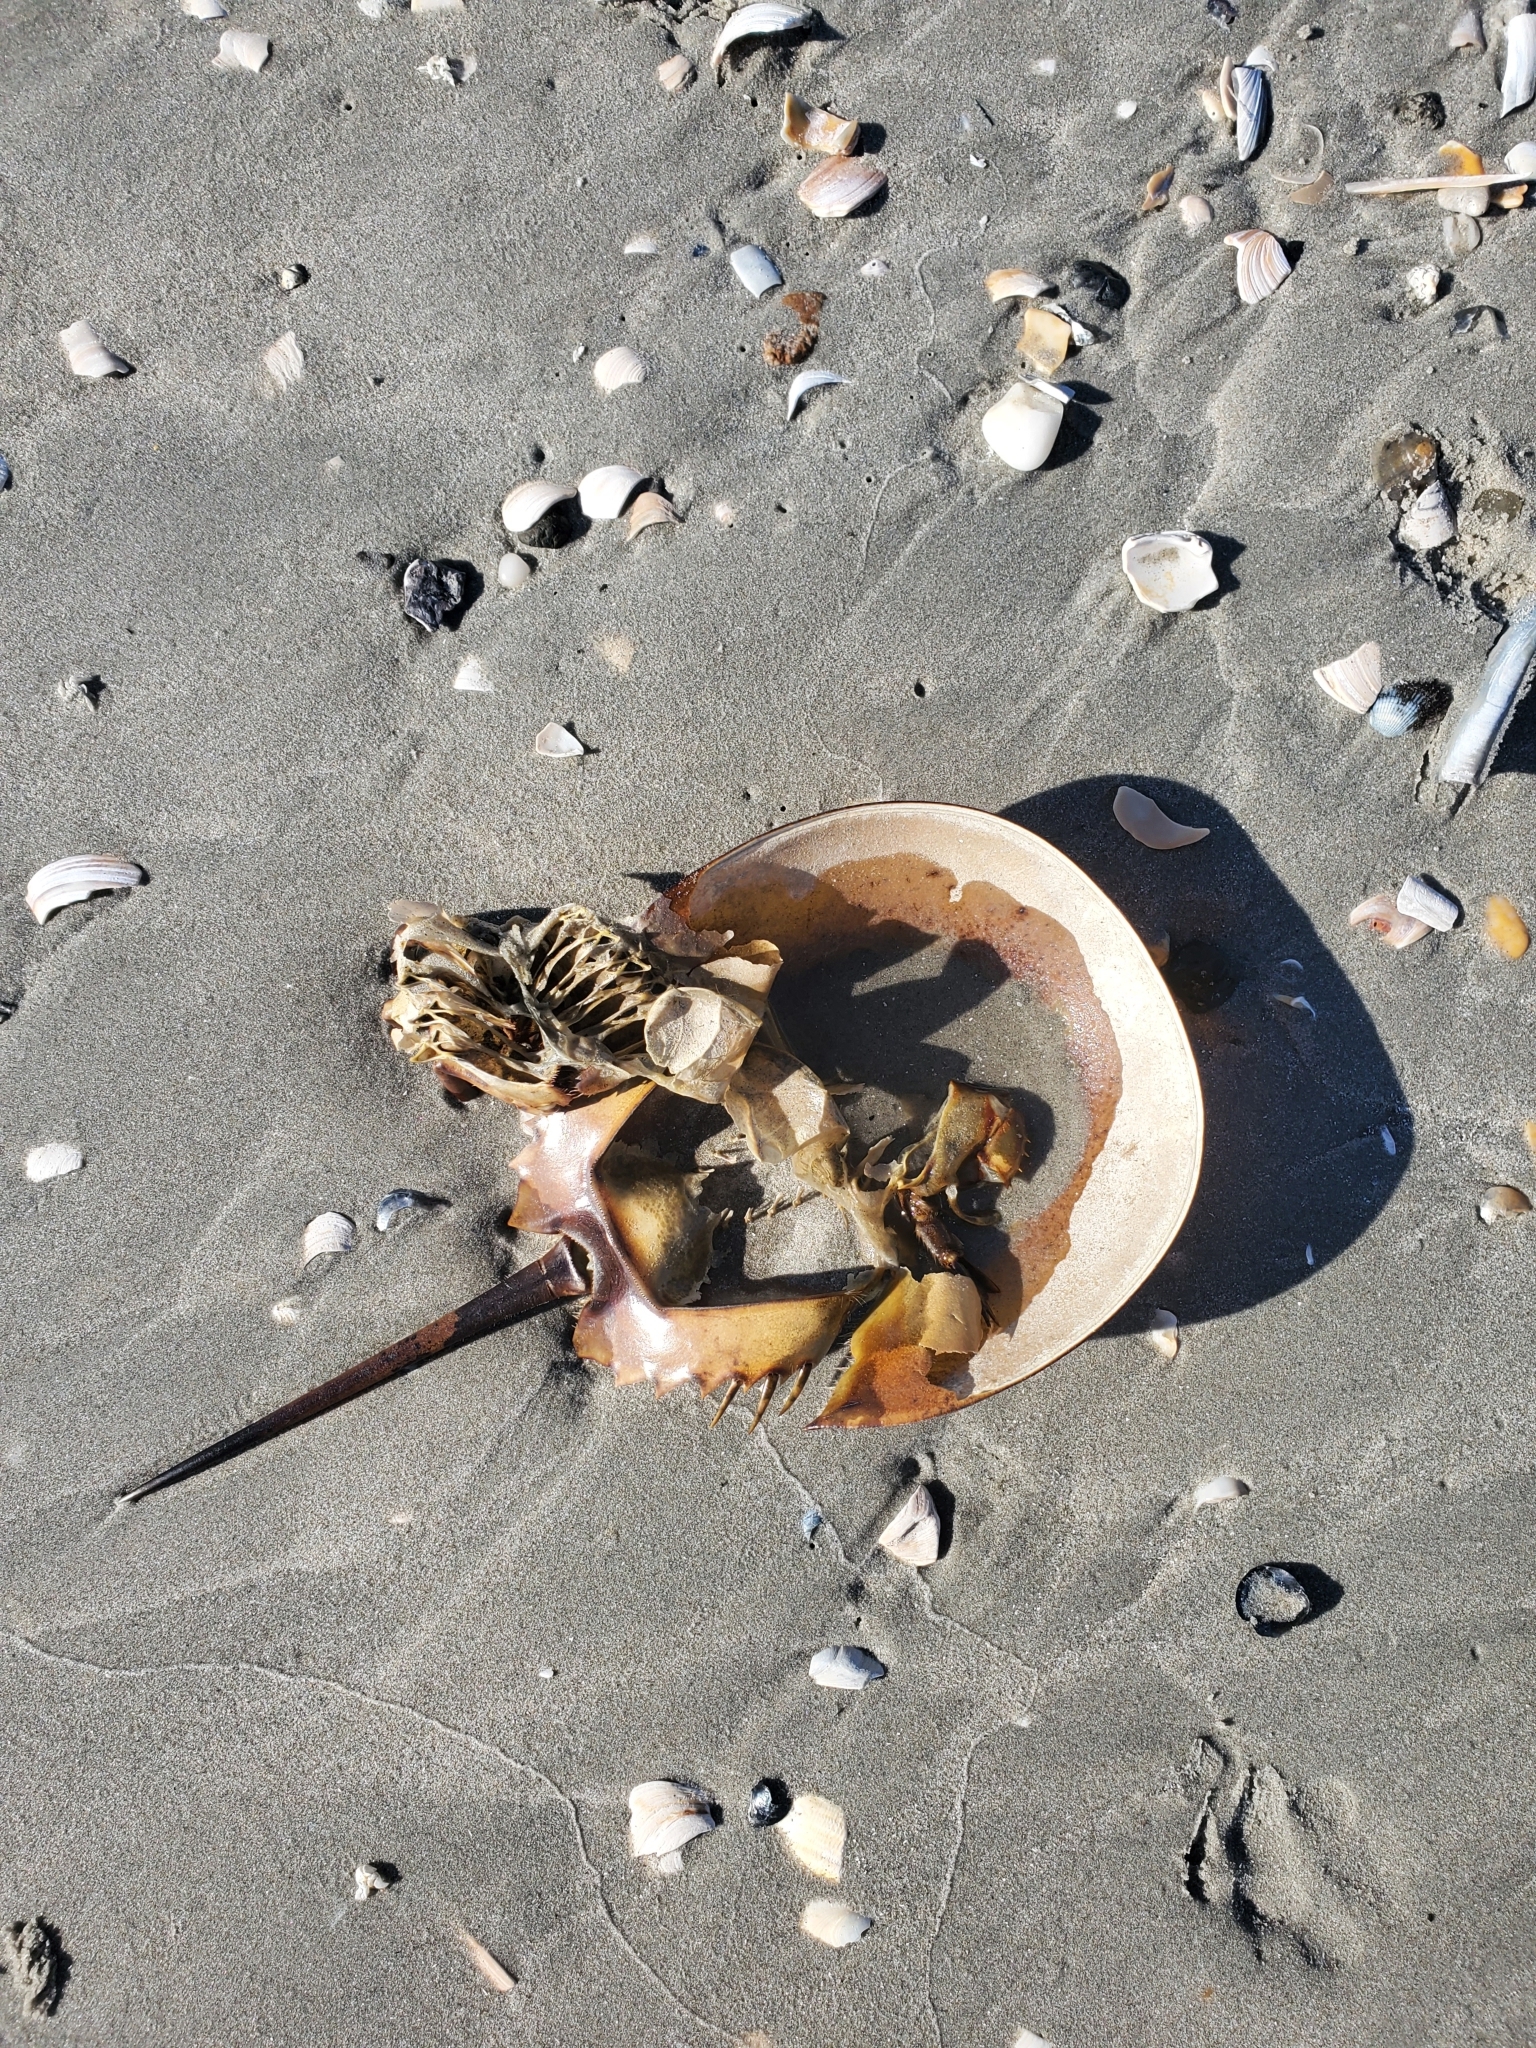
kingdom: Animalia
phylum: Arthropoda
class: Merostomata
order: Xiphosurida
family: Limulidae
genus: Limulus
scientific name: Limulus polyphemus
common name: Horseshoe crab
